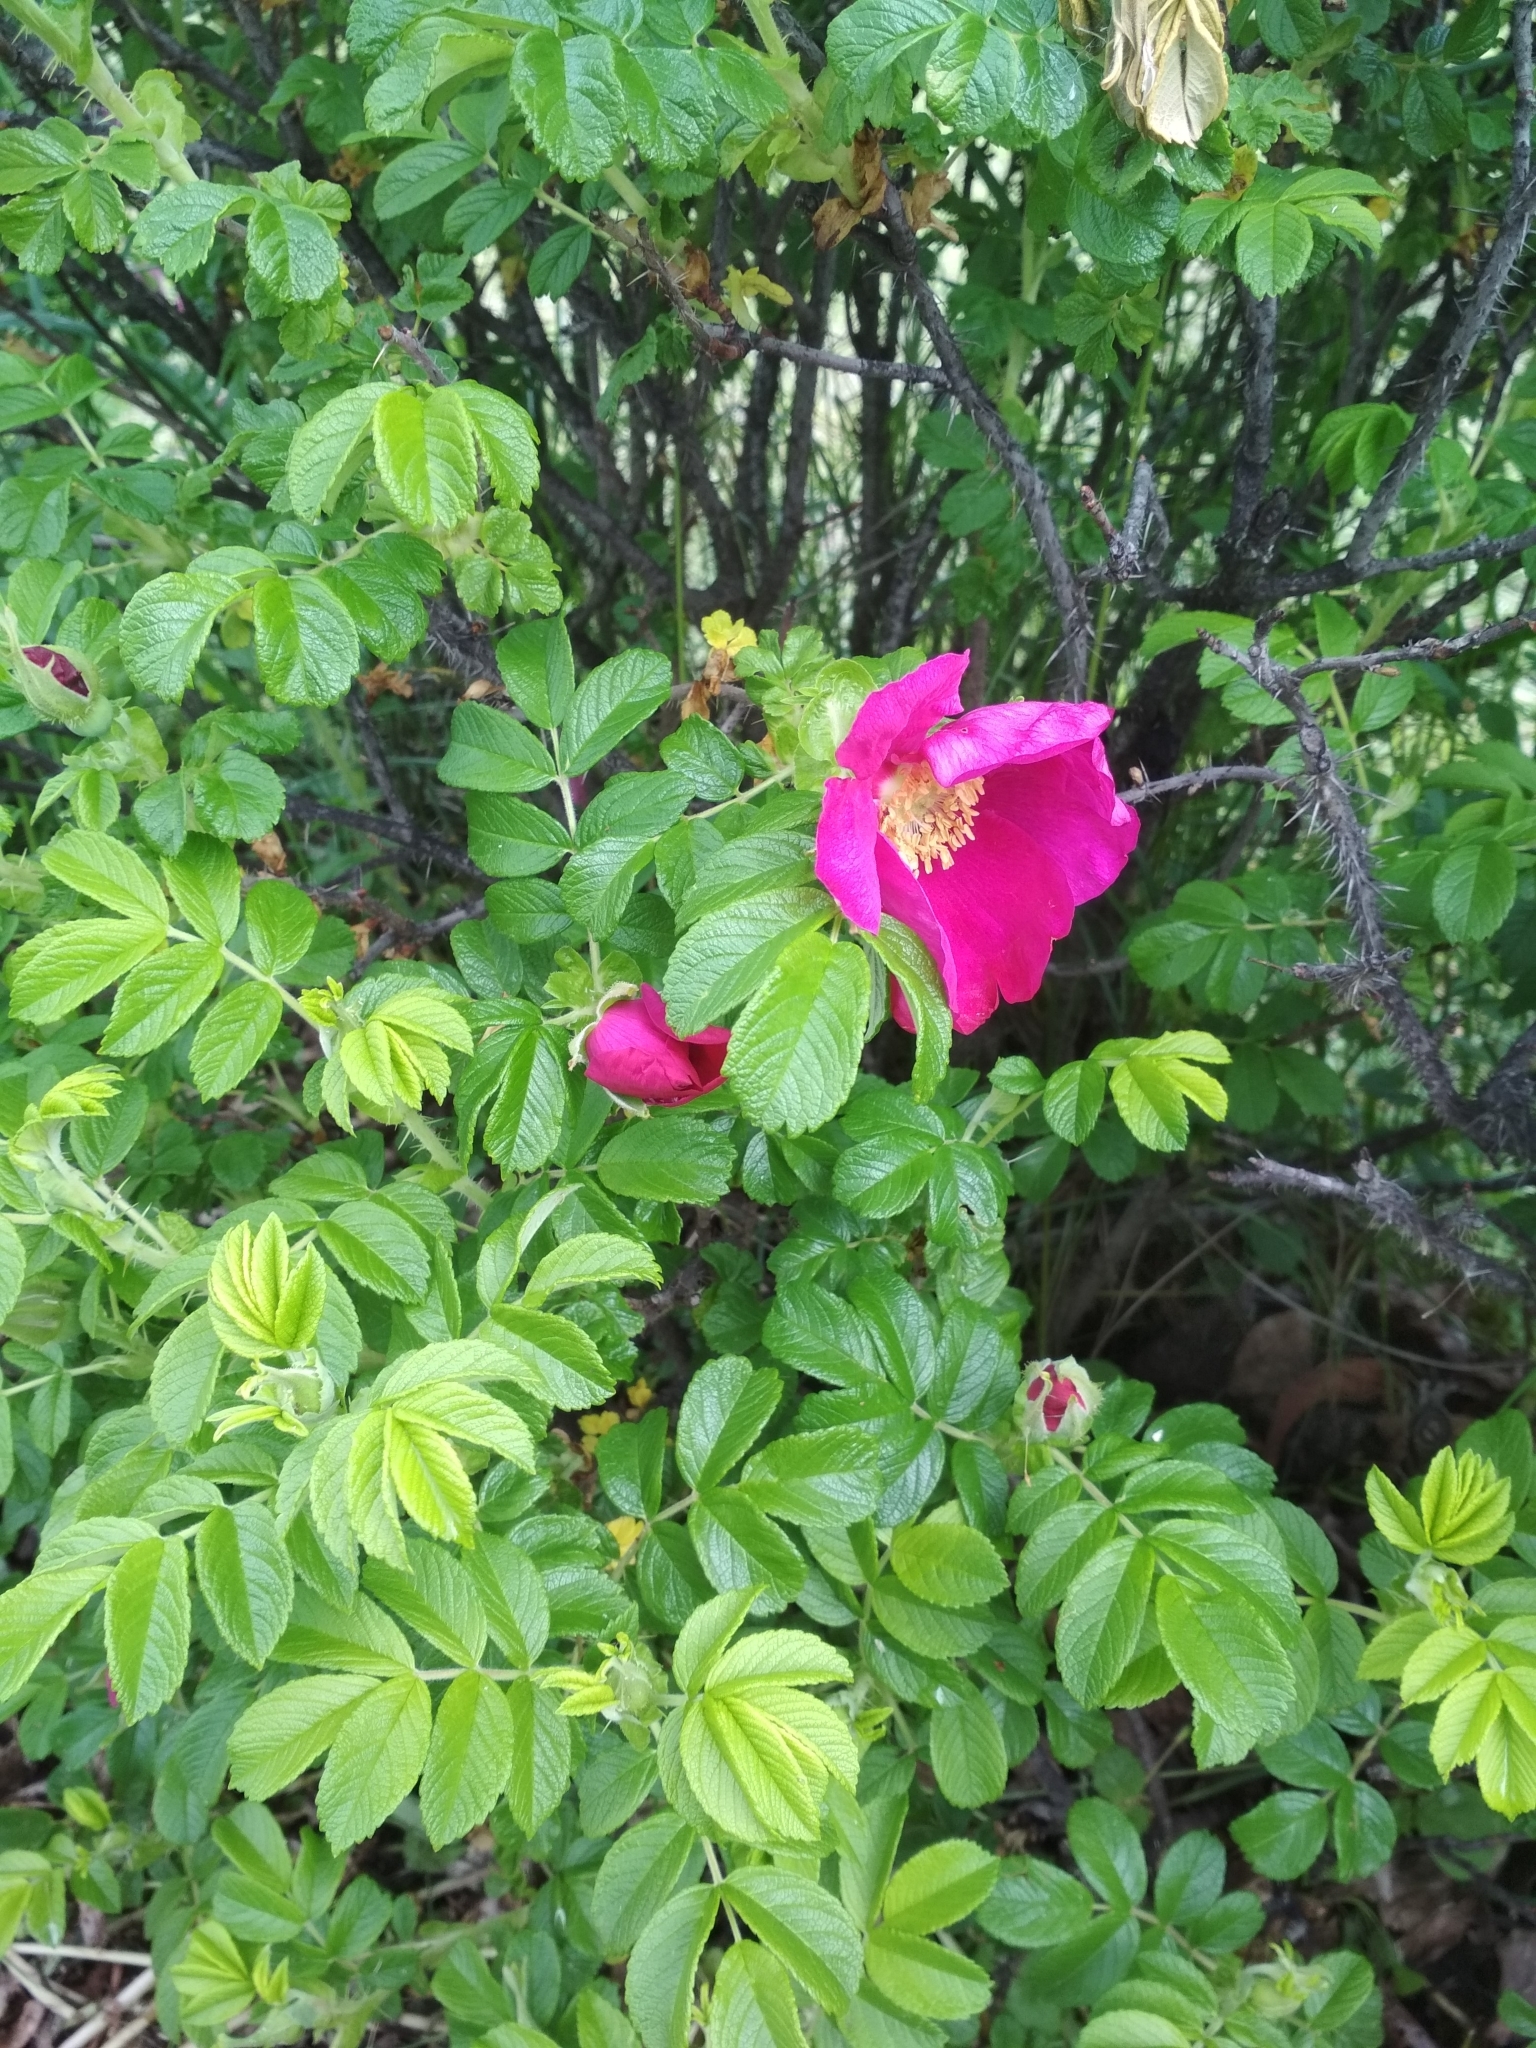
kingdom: Plantae
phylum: Tracheophyta
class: Magnoliopsida
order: Rosales
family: Rosaceae
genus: Rosa
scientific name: Rosa rugosa
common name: Japanese rose
